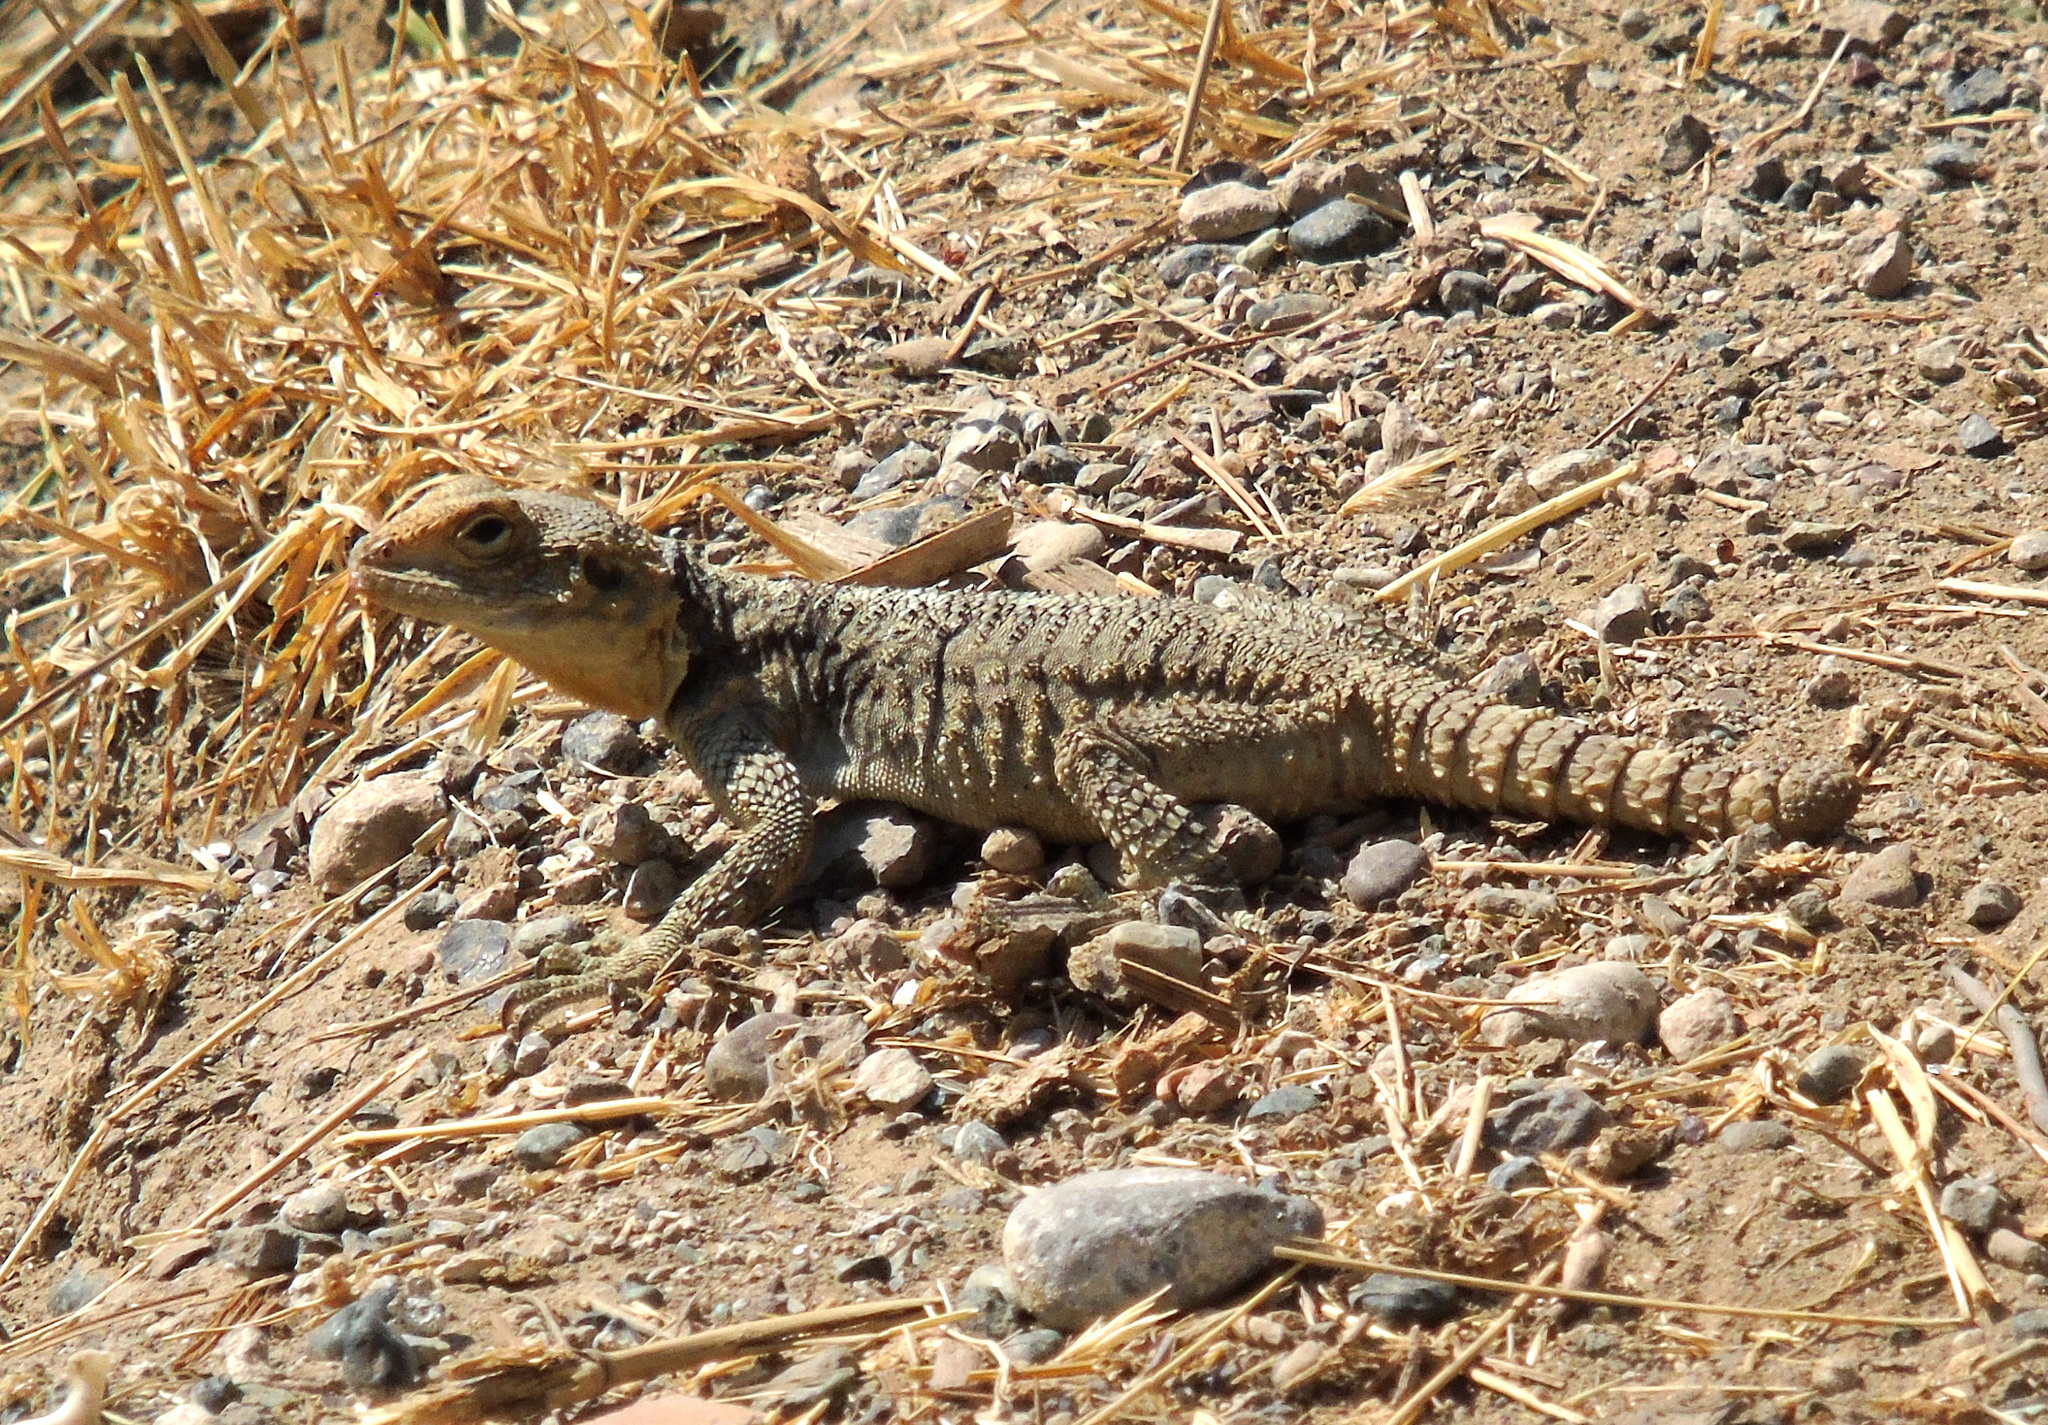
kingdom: Animalia
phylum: Chordata
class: Squamata
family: Agamidae
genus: Stellagama
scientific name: Stellagama stellio
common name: Starred agama
